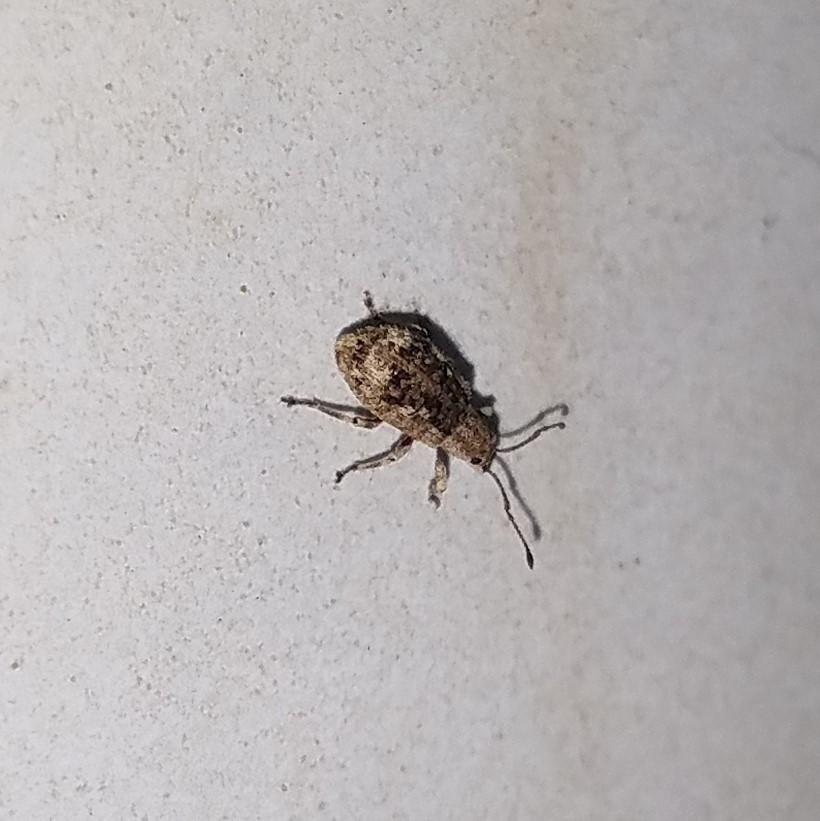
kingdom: Animalia
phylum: Arthropoda
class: Insecta
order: Coleoptera
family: Curculionidae
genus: Pseudoedophrys
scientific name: Pseudoedophrys hilleri
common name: Weevil
